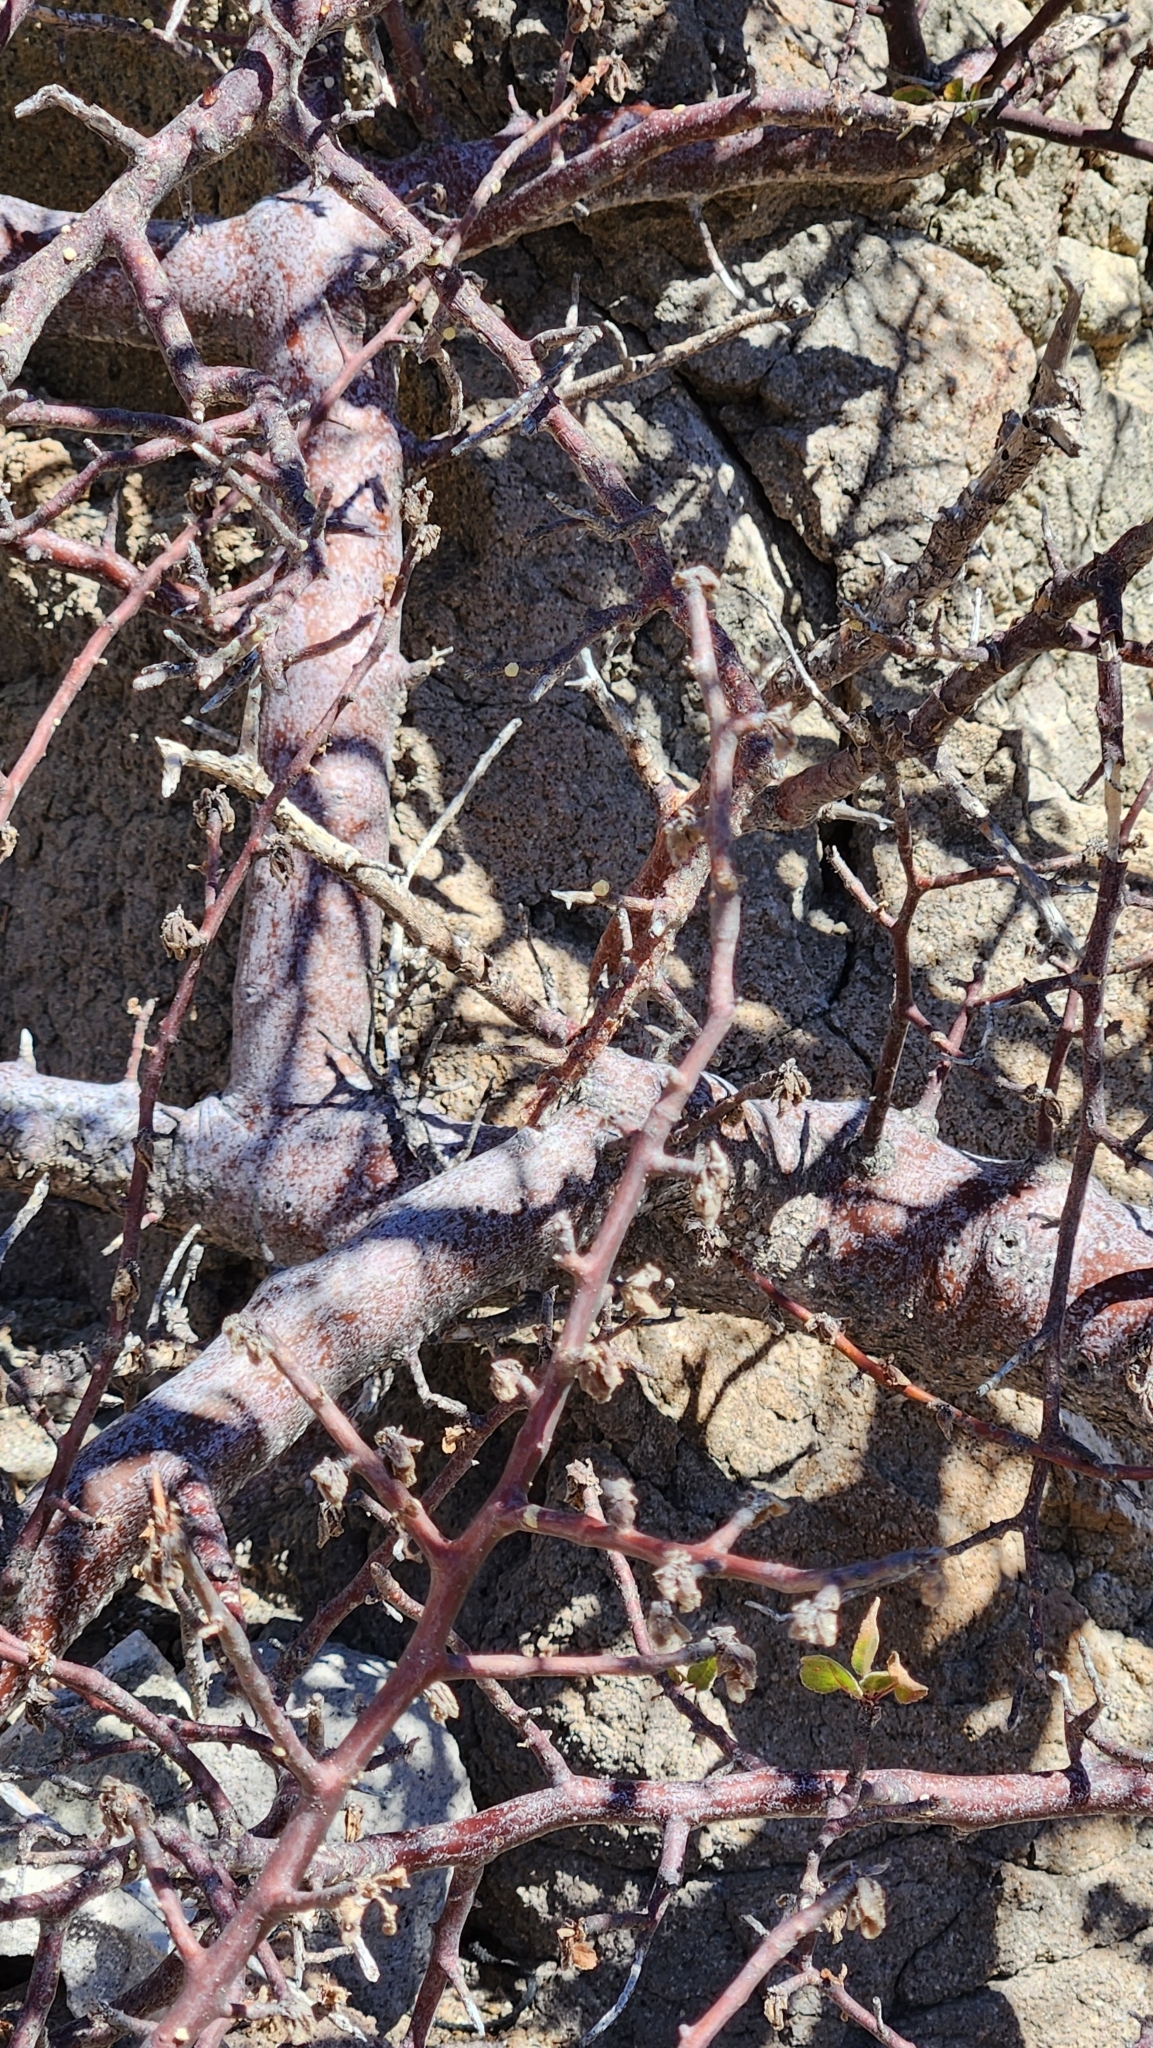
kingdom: Plantae
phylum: Tracheophyta
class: Magnoliopsida
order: Sapindales
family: Burseraceae
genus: Bursera
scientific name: Bursera hindsiana
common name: Red elephant tree
